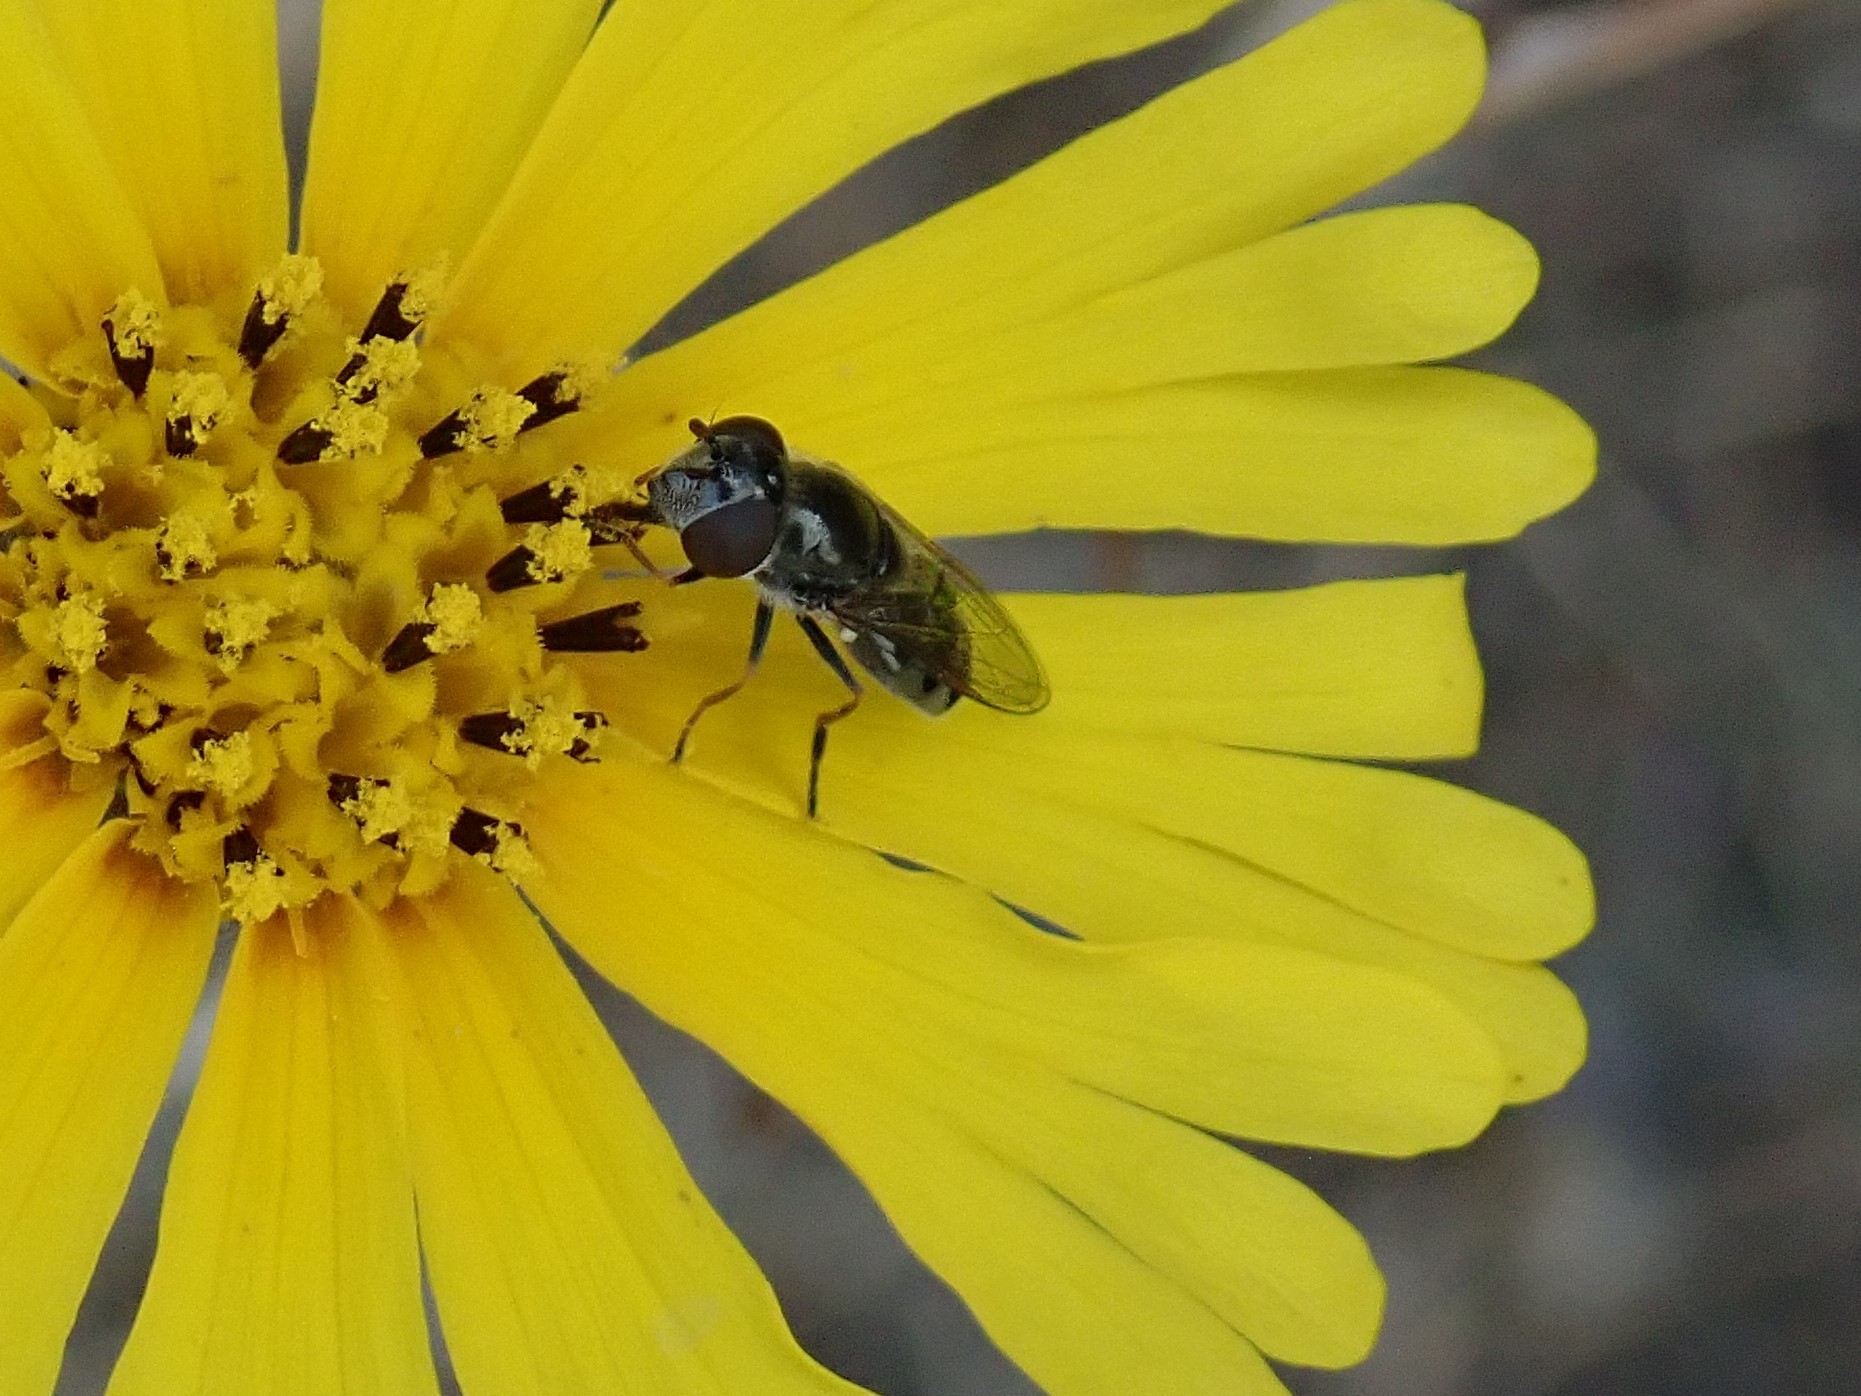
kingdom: Animalia
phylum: Arthropoda
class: Insecta
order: Diptera
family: Syrphidae
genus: Platycheirus
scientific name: Platycheirus stegnus
